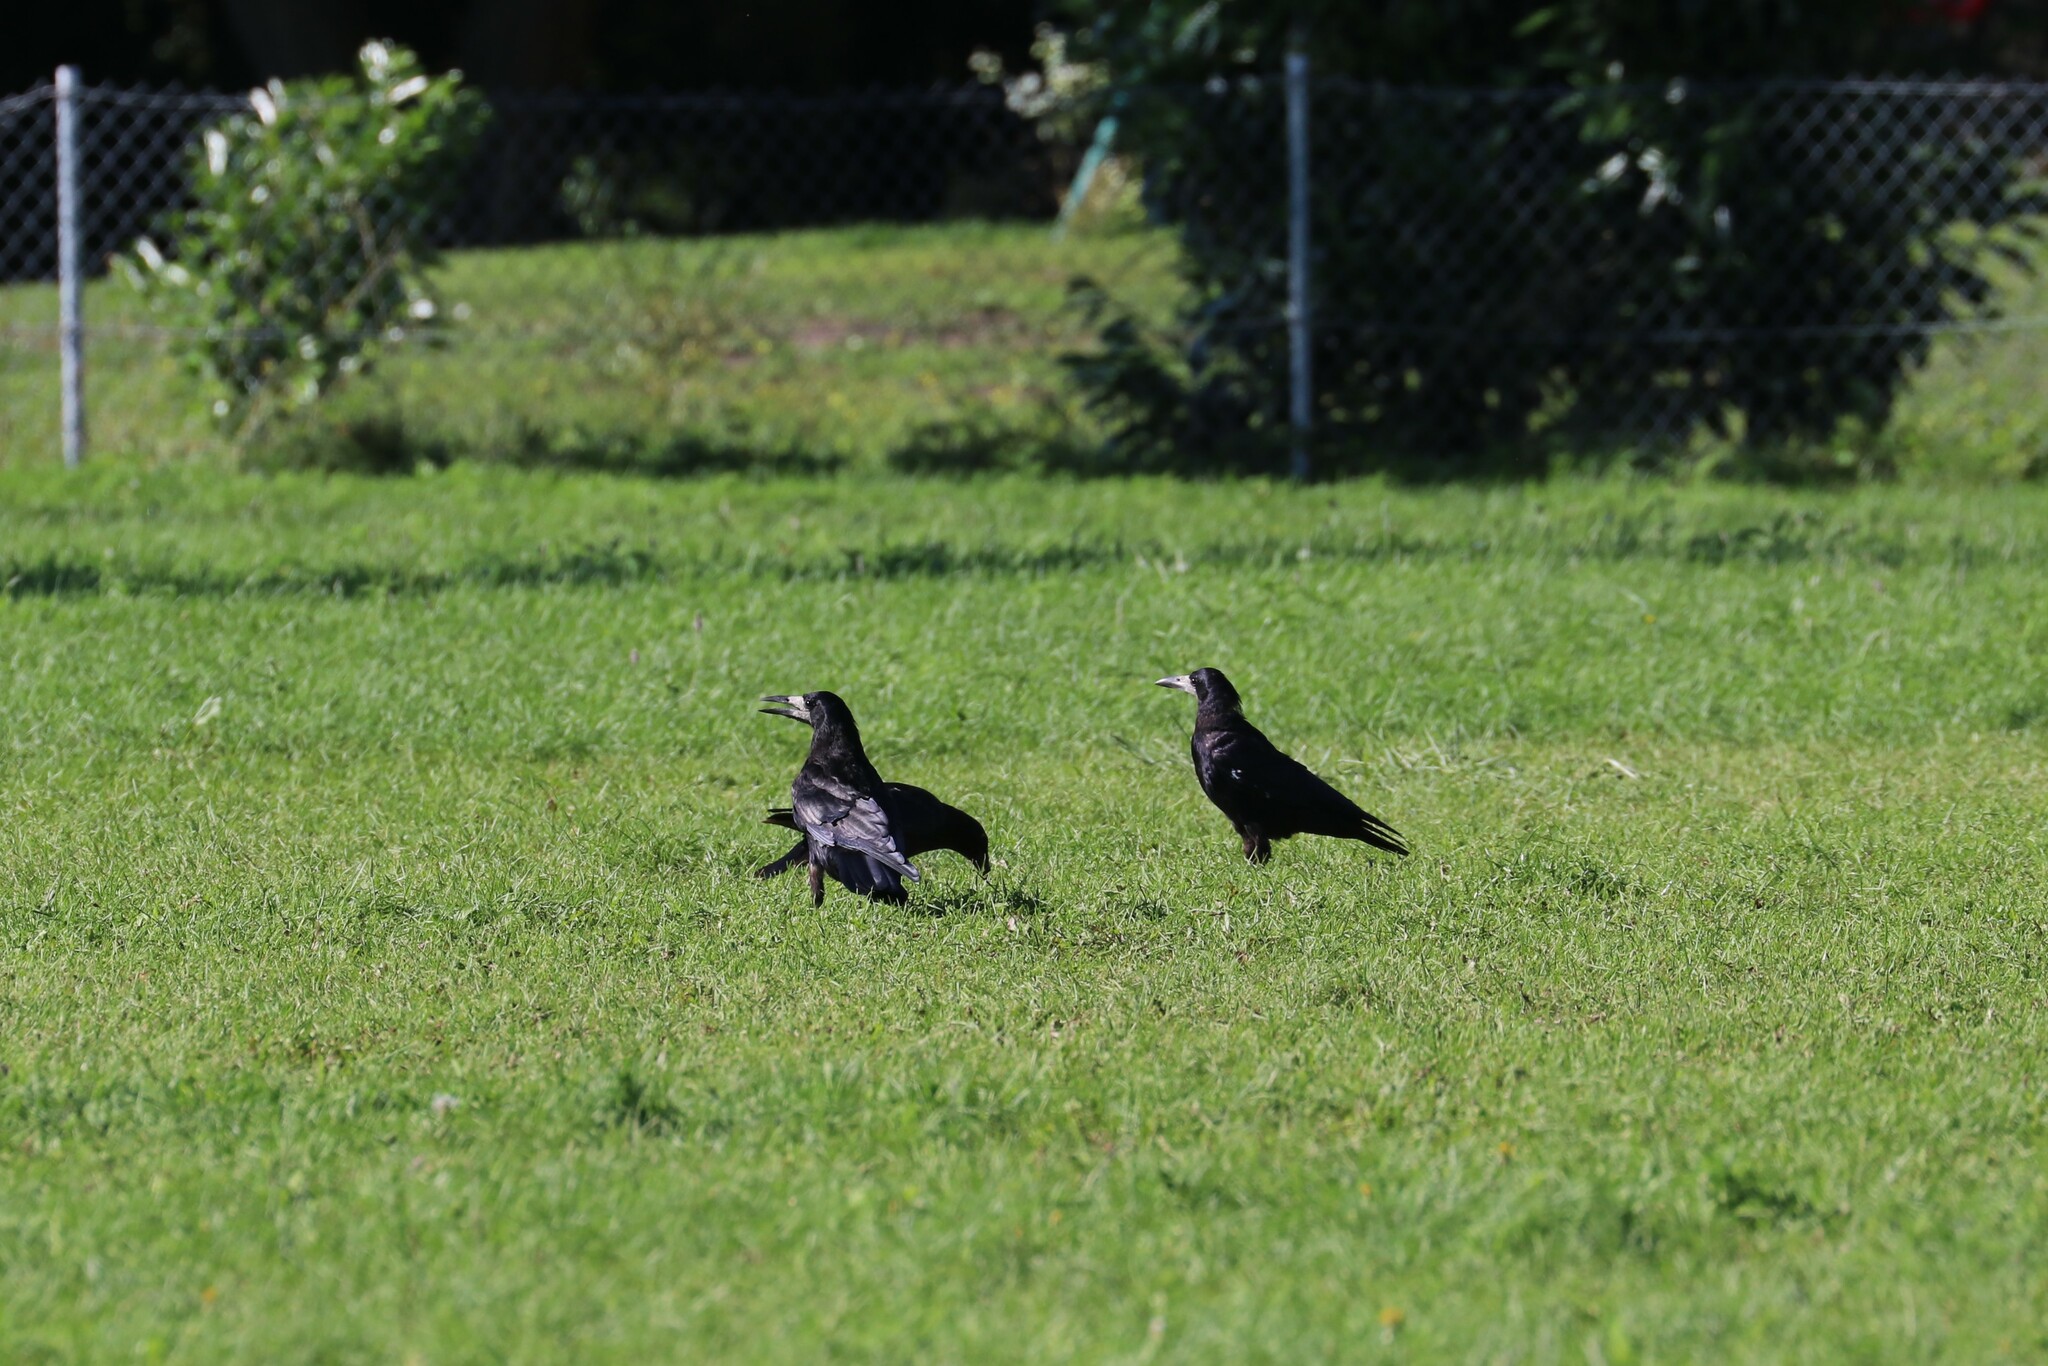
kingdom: Animalia
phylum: Chordata
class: Aves
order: Passeriformes
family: Corvidae
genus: Corvus
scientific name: Corvus frugilegus
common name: Rook
